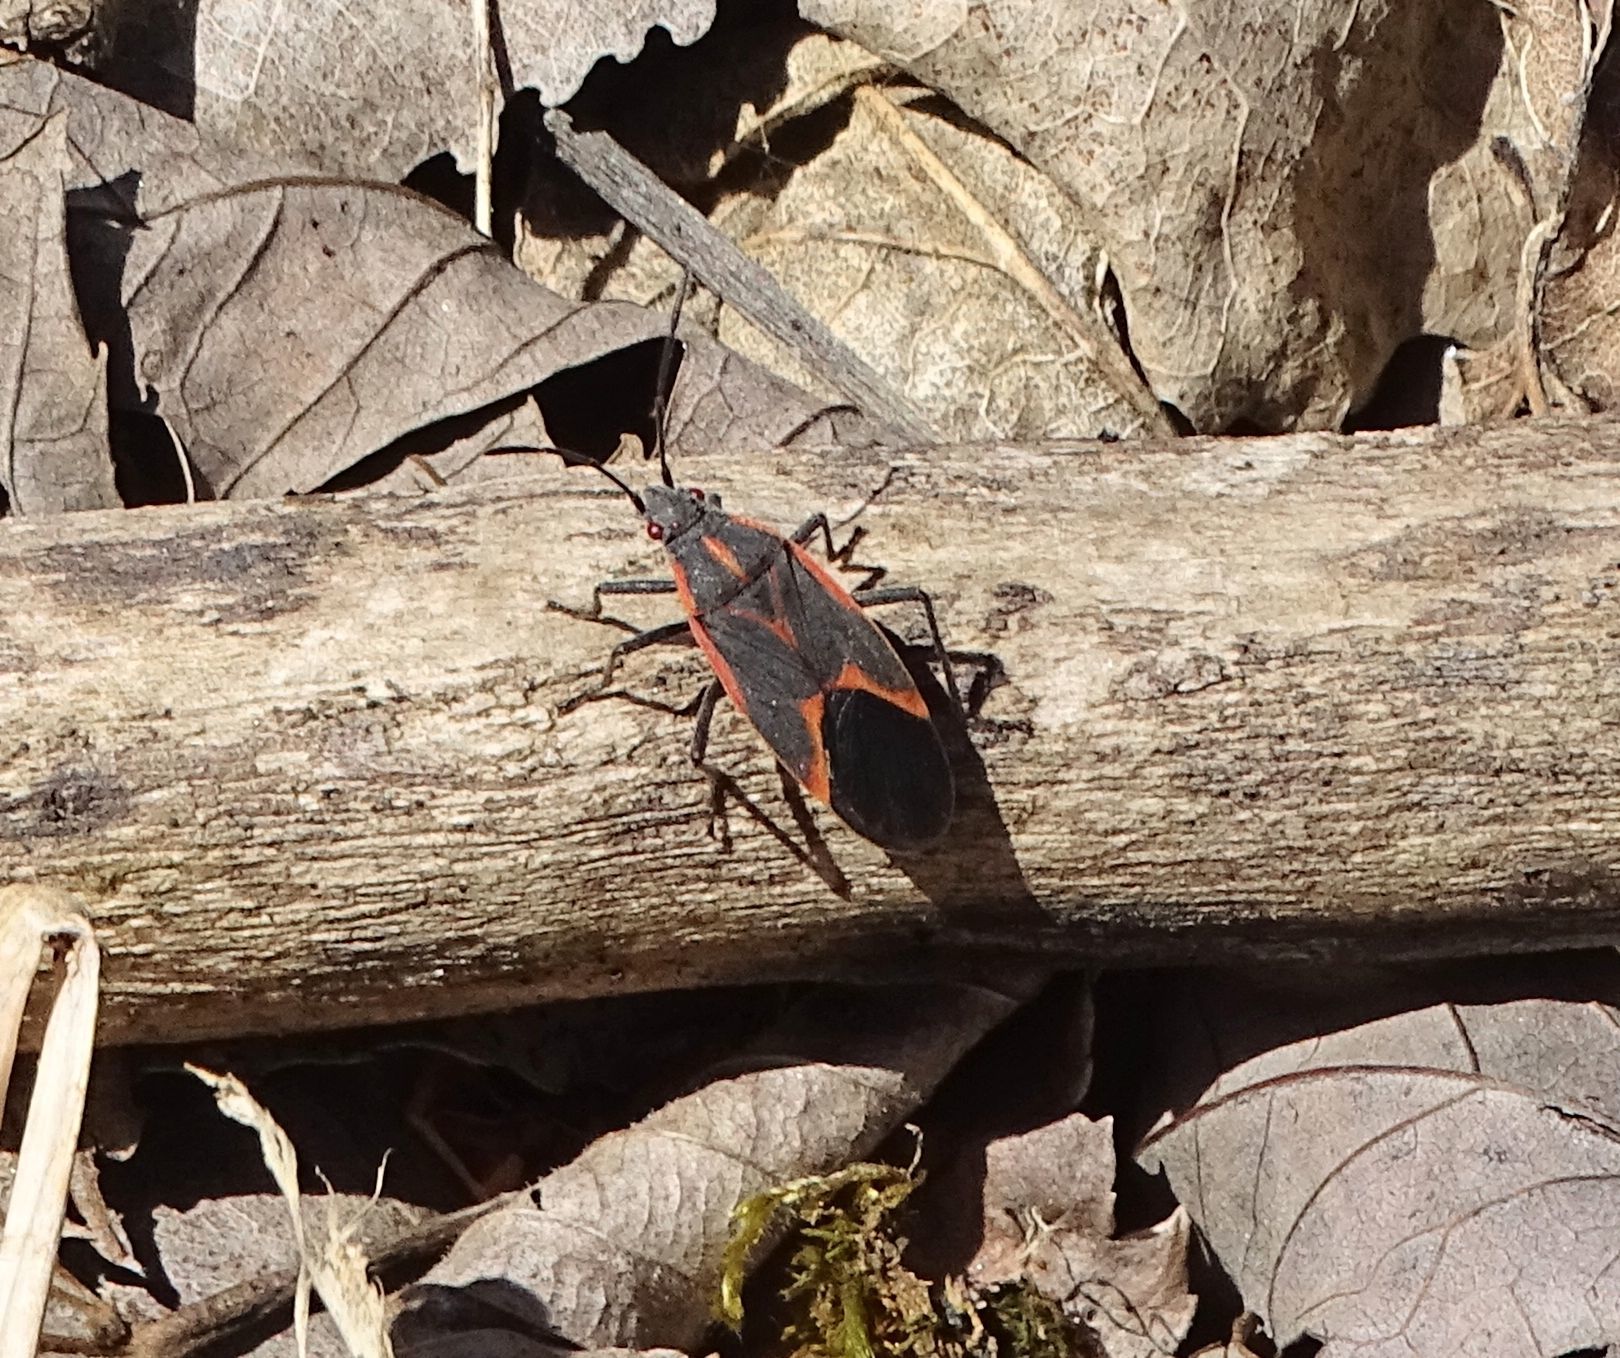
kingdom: Animalia
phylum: Arthropoda
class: Insecta
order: Hemiptera
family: Rhopalidae
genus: Boisea
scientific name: Boisea trivittata
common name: Boxelder bug
